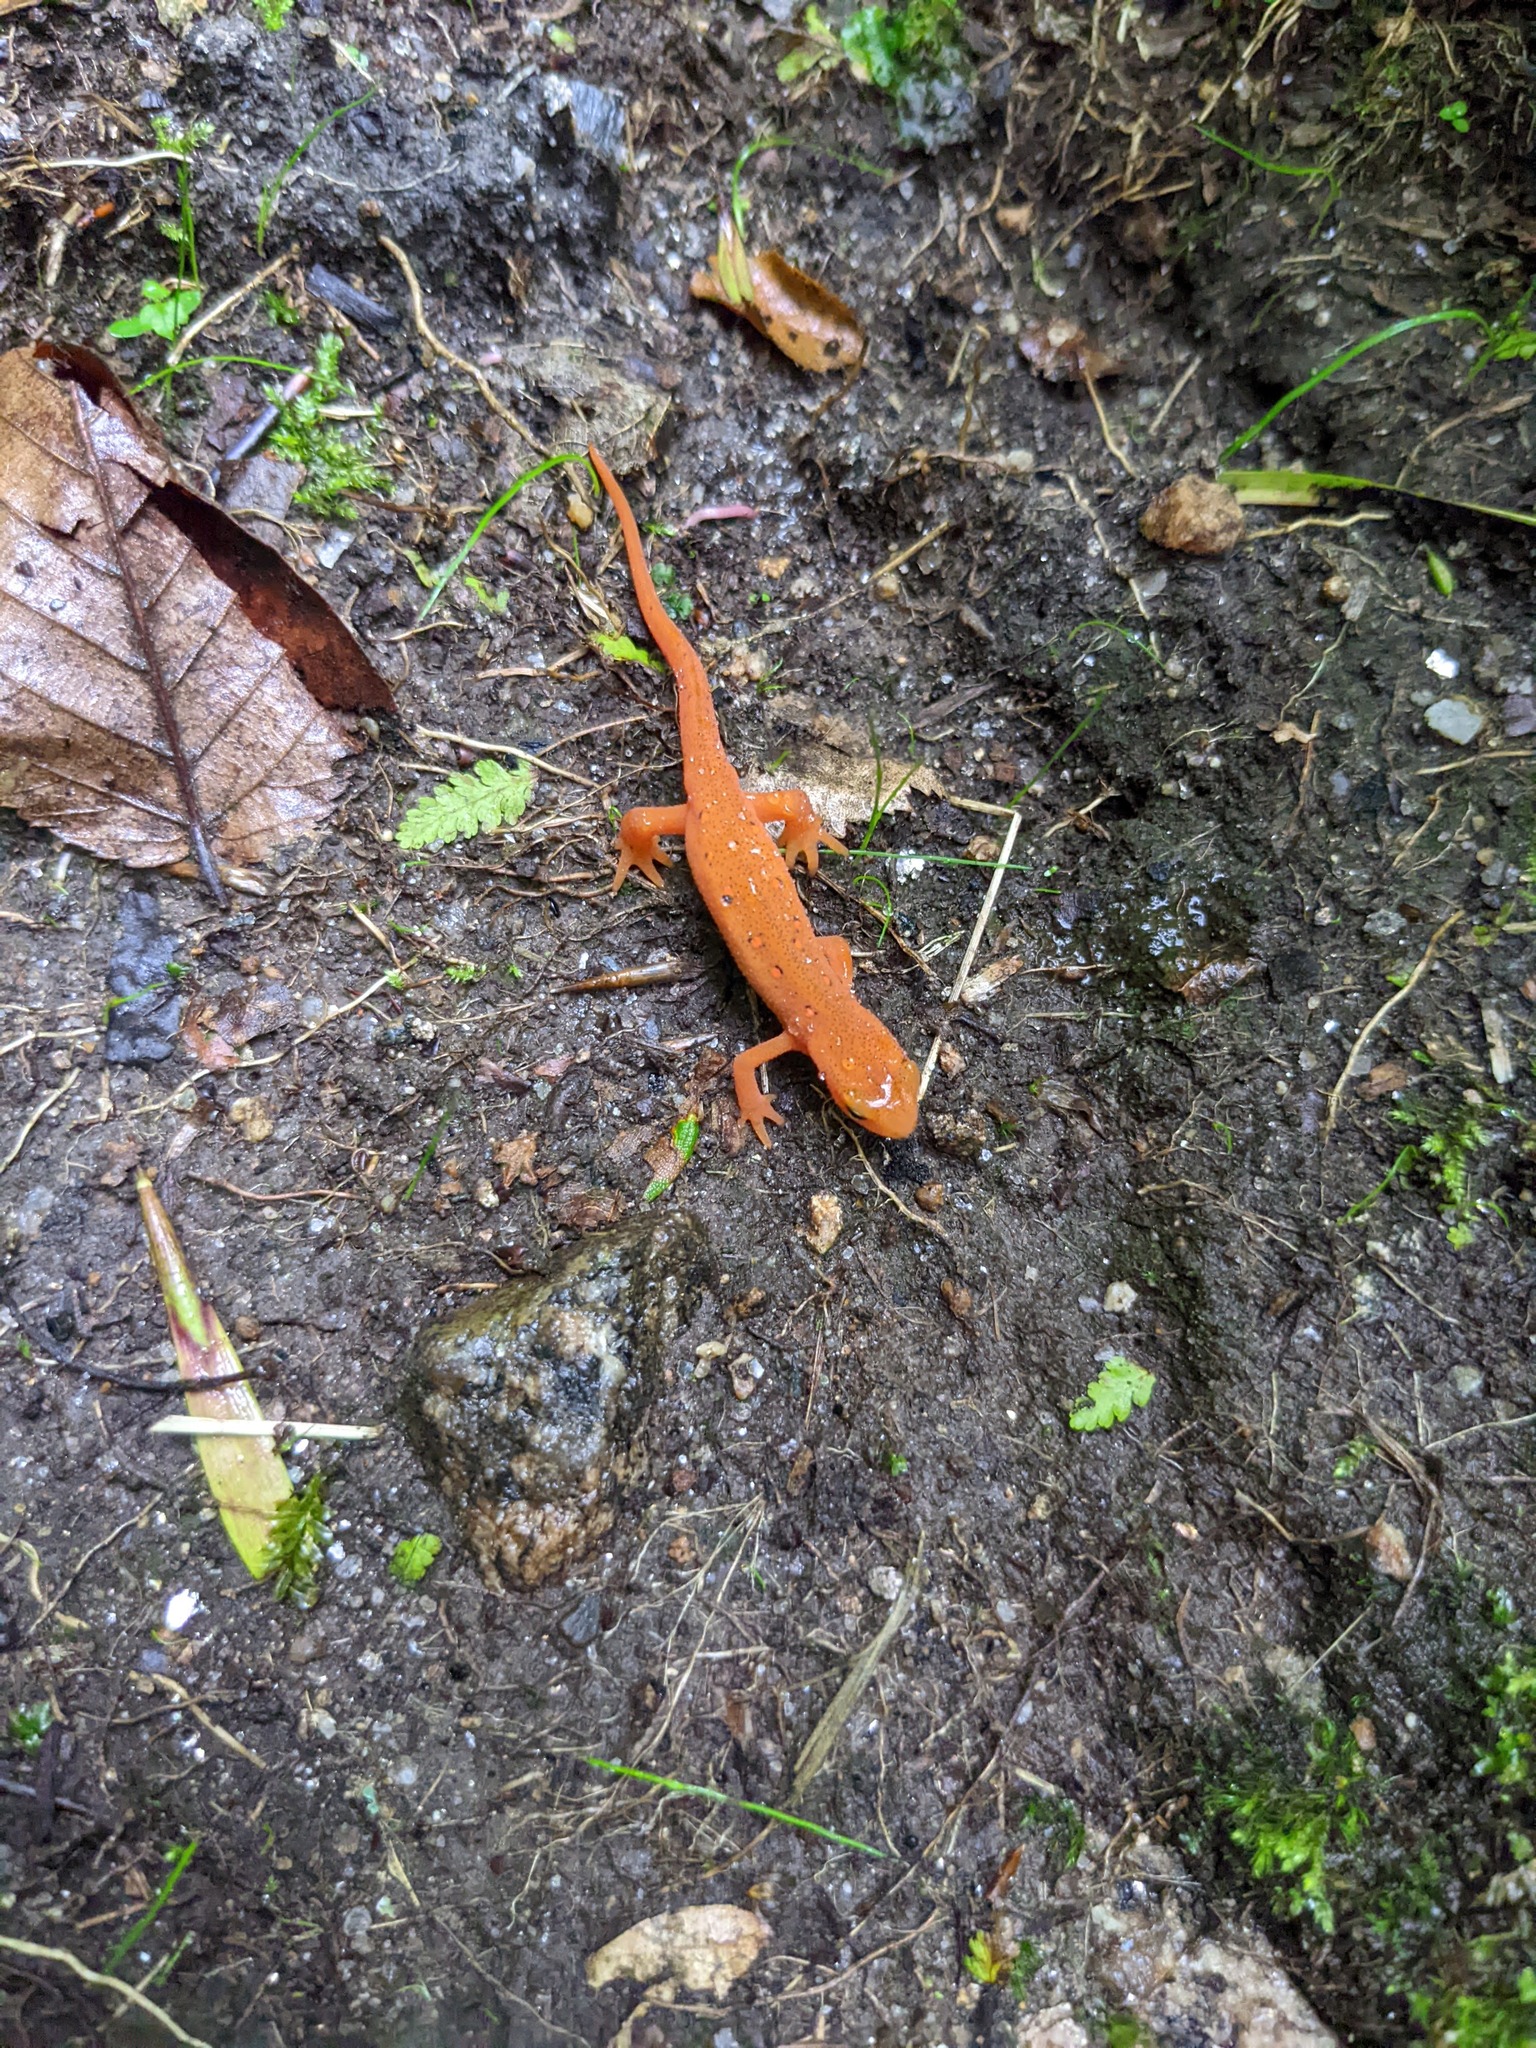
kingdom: Animalia
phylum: Chordata
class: Amphibia
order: Caudata
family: Salamandridae
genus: Notophthalmus
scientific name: Notophthalmus viridescens
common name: Eastern newt
